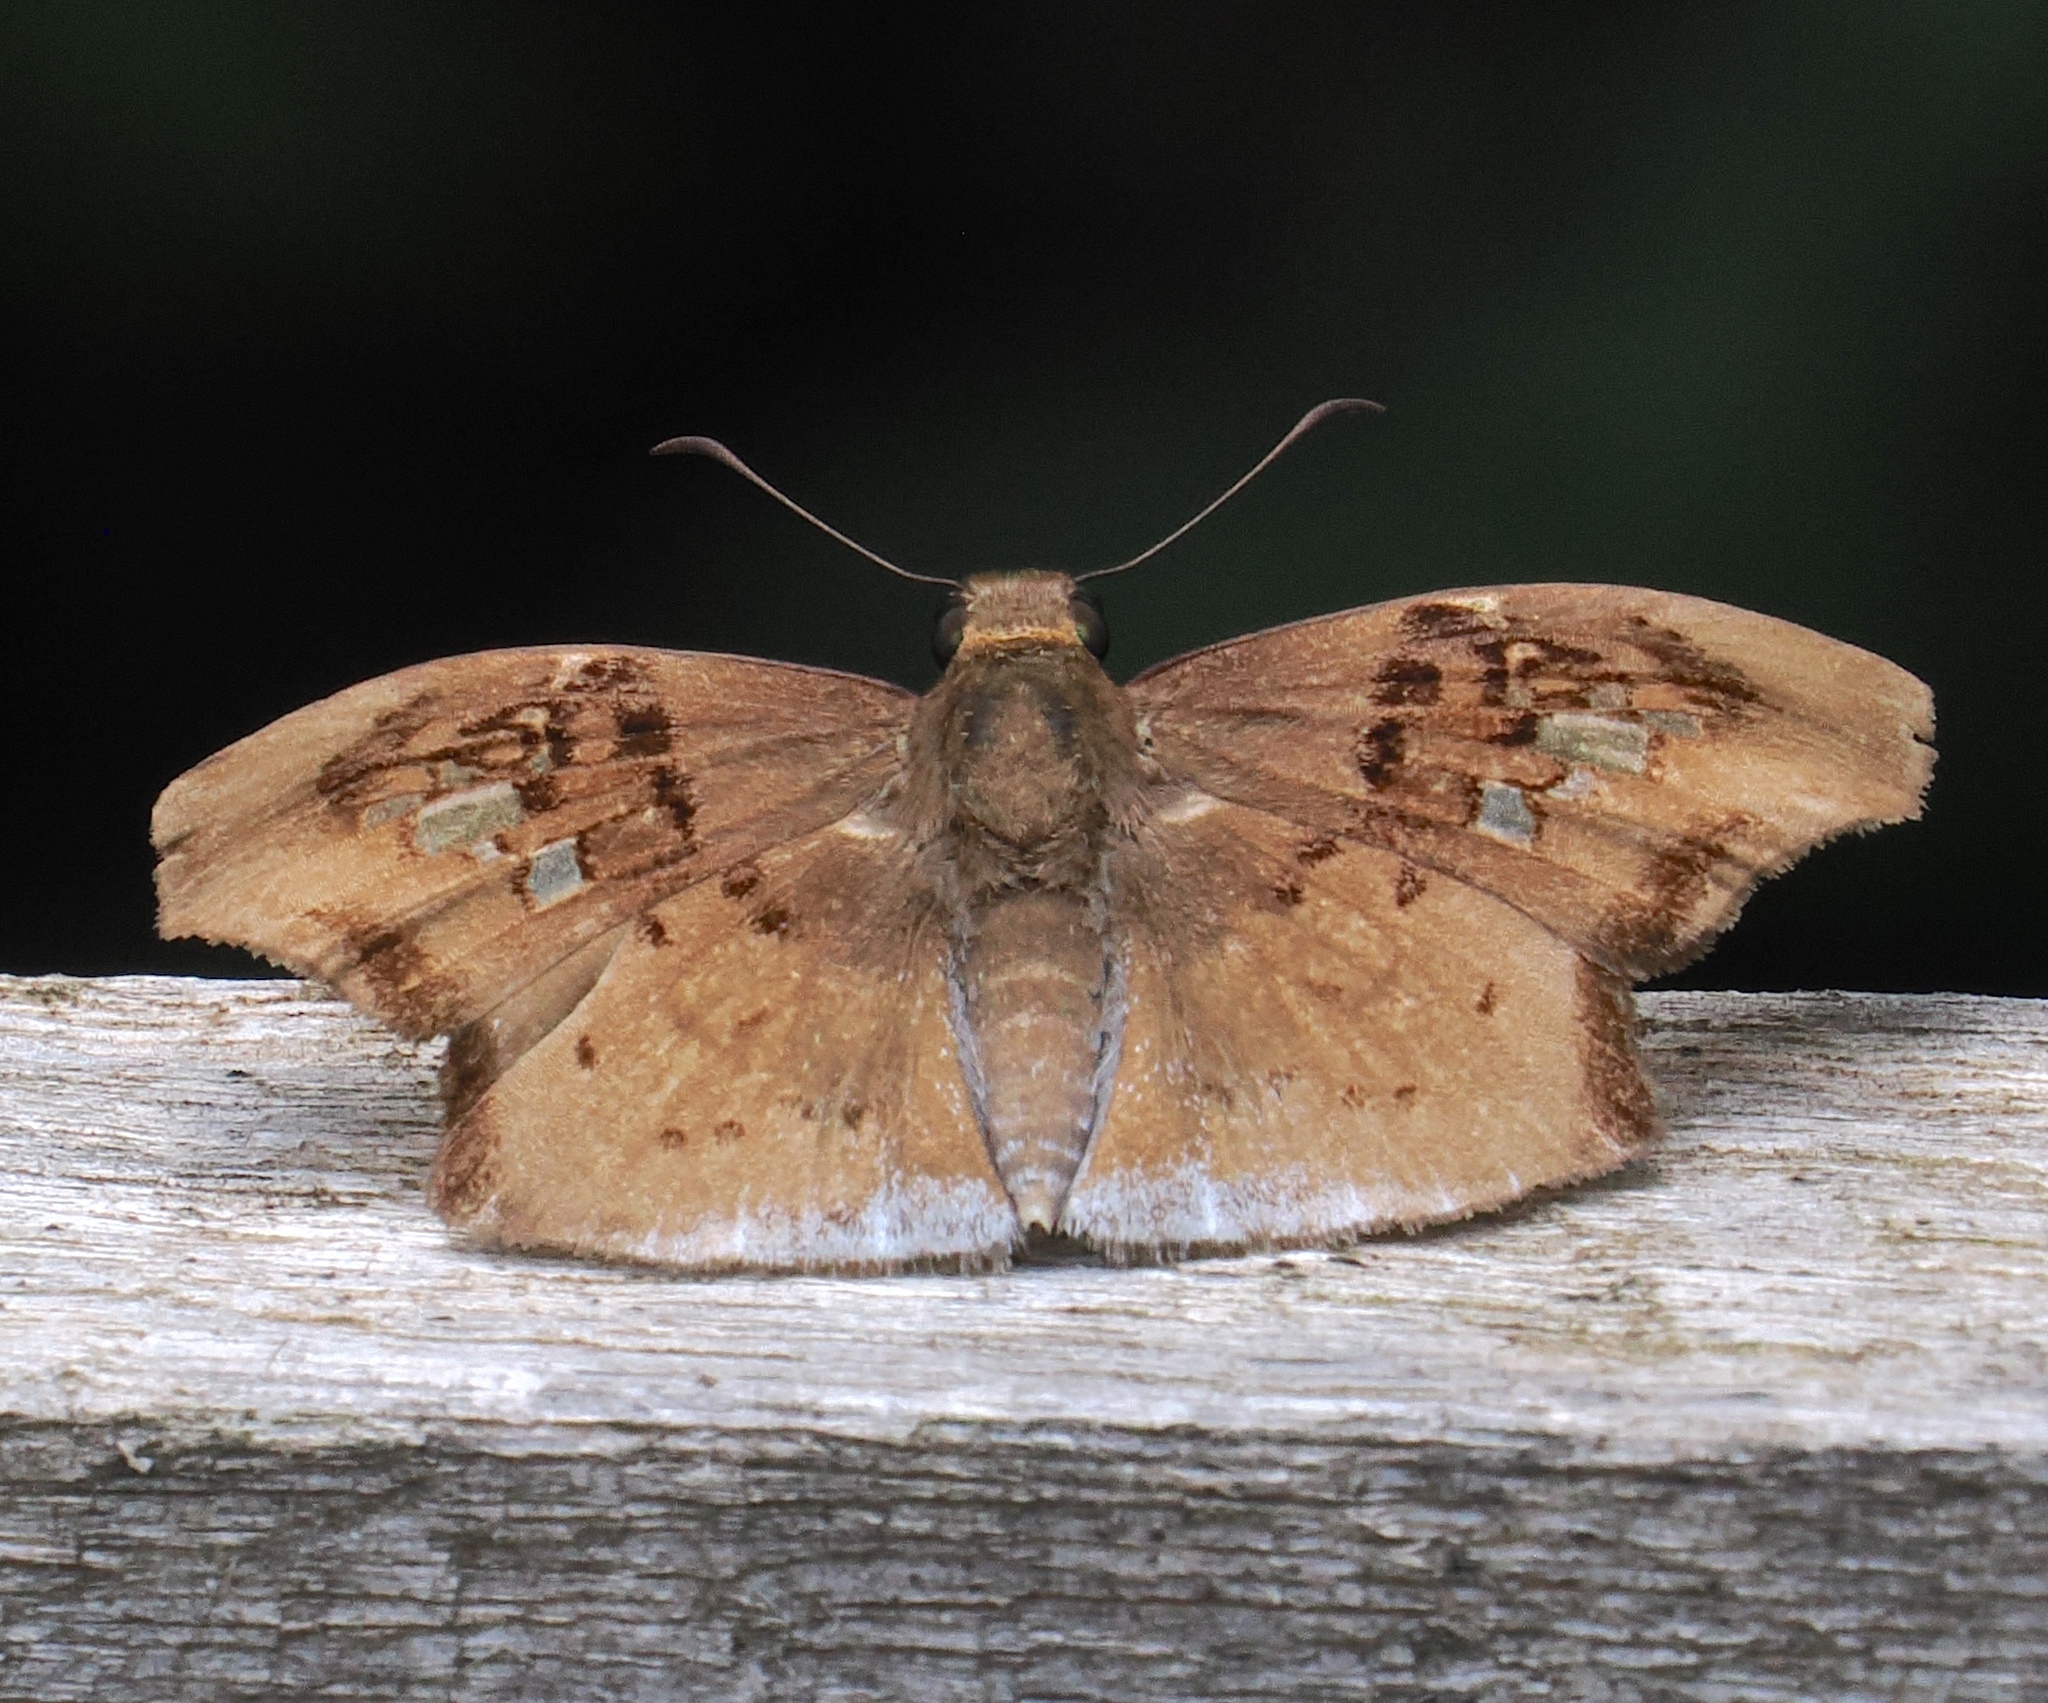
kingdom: Animalia
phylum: Arthropoda
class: Insecta
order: Lepidoptera
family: Hesperiidae
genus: Gindanes
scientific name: Gindanes brebisson
